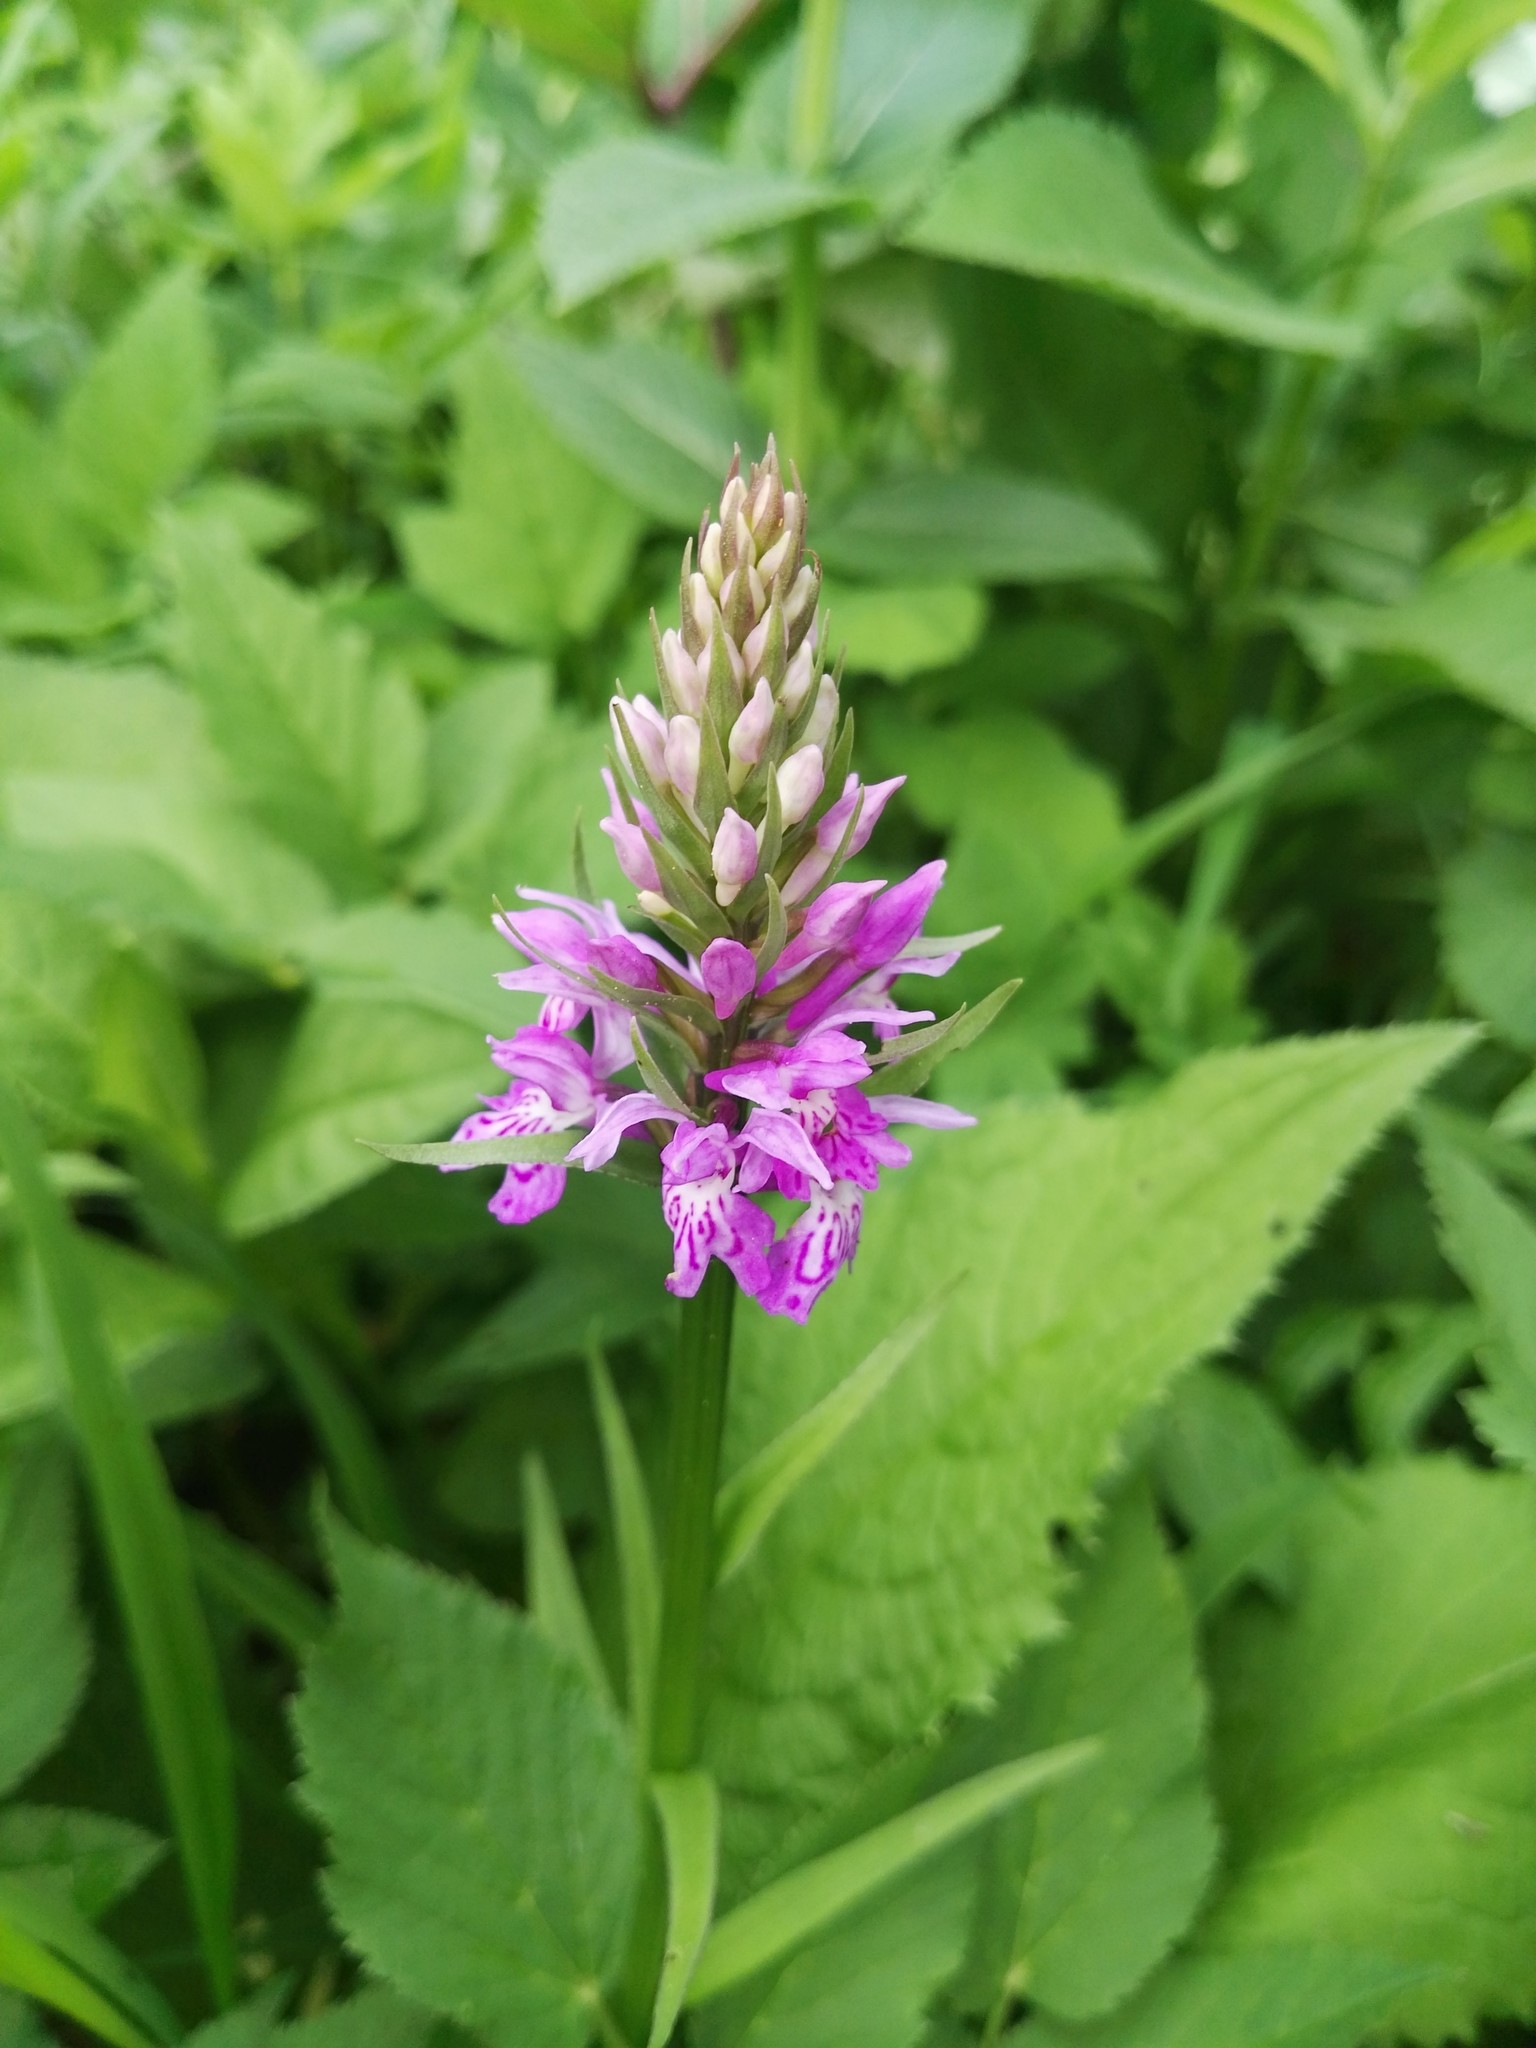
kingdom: Plantae
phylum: Tracheophyta
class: Liliopsida
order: Asparagales
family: Orchidaceae
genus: Dactylorhiza
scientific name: Dactylorhiza maculata
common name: Heath spotted-orchid
